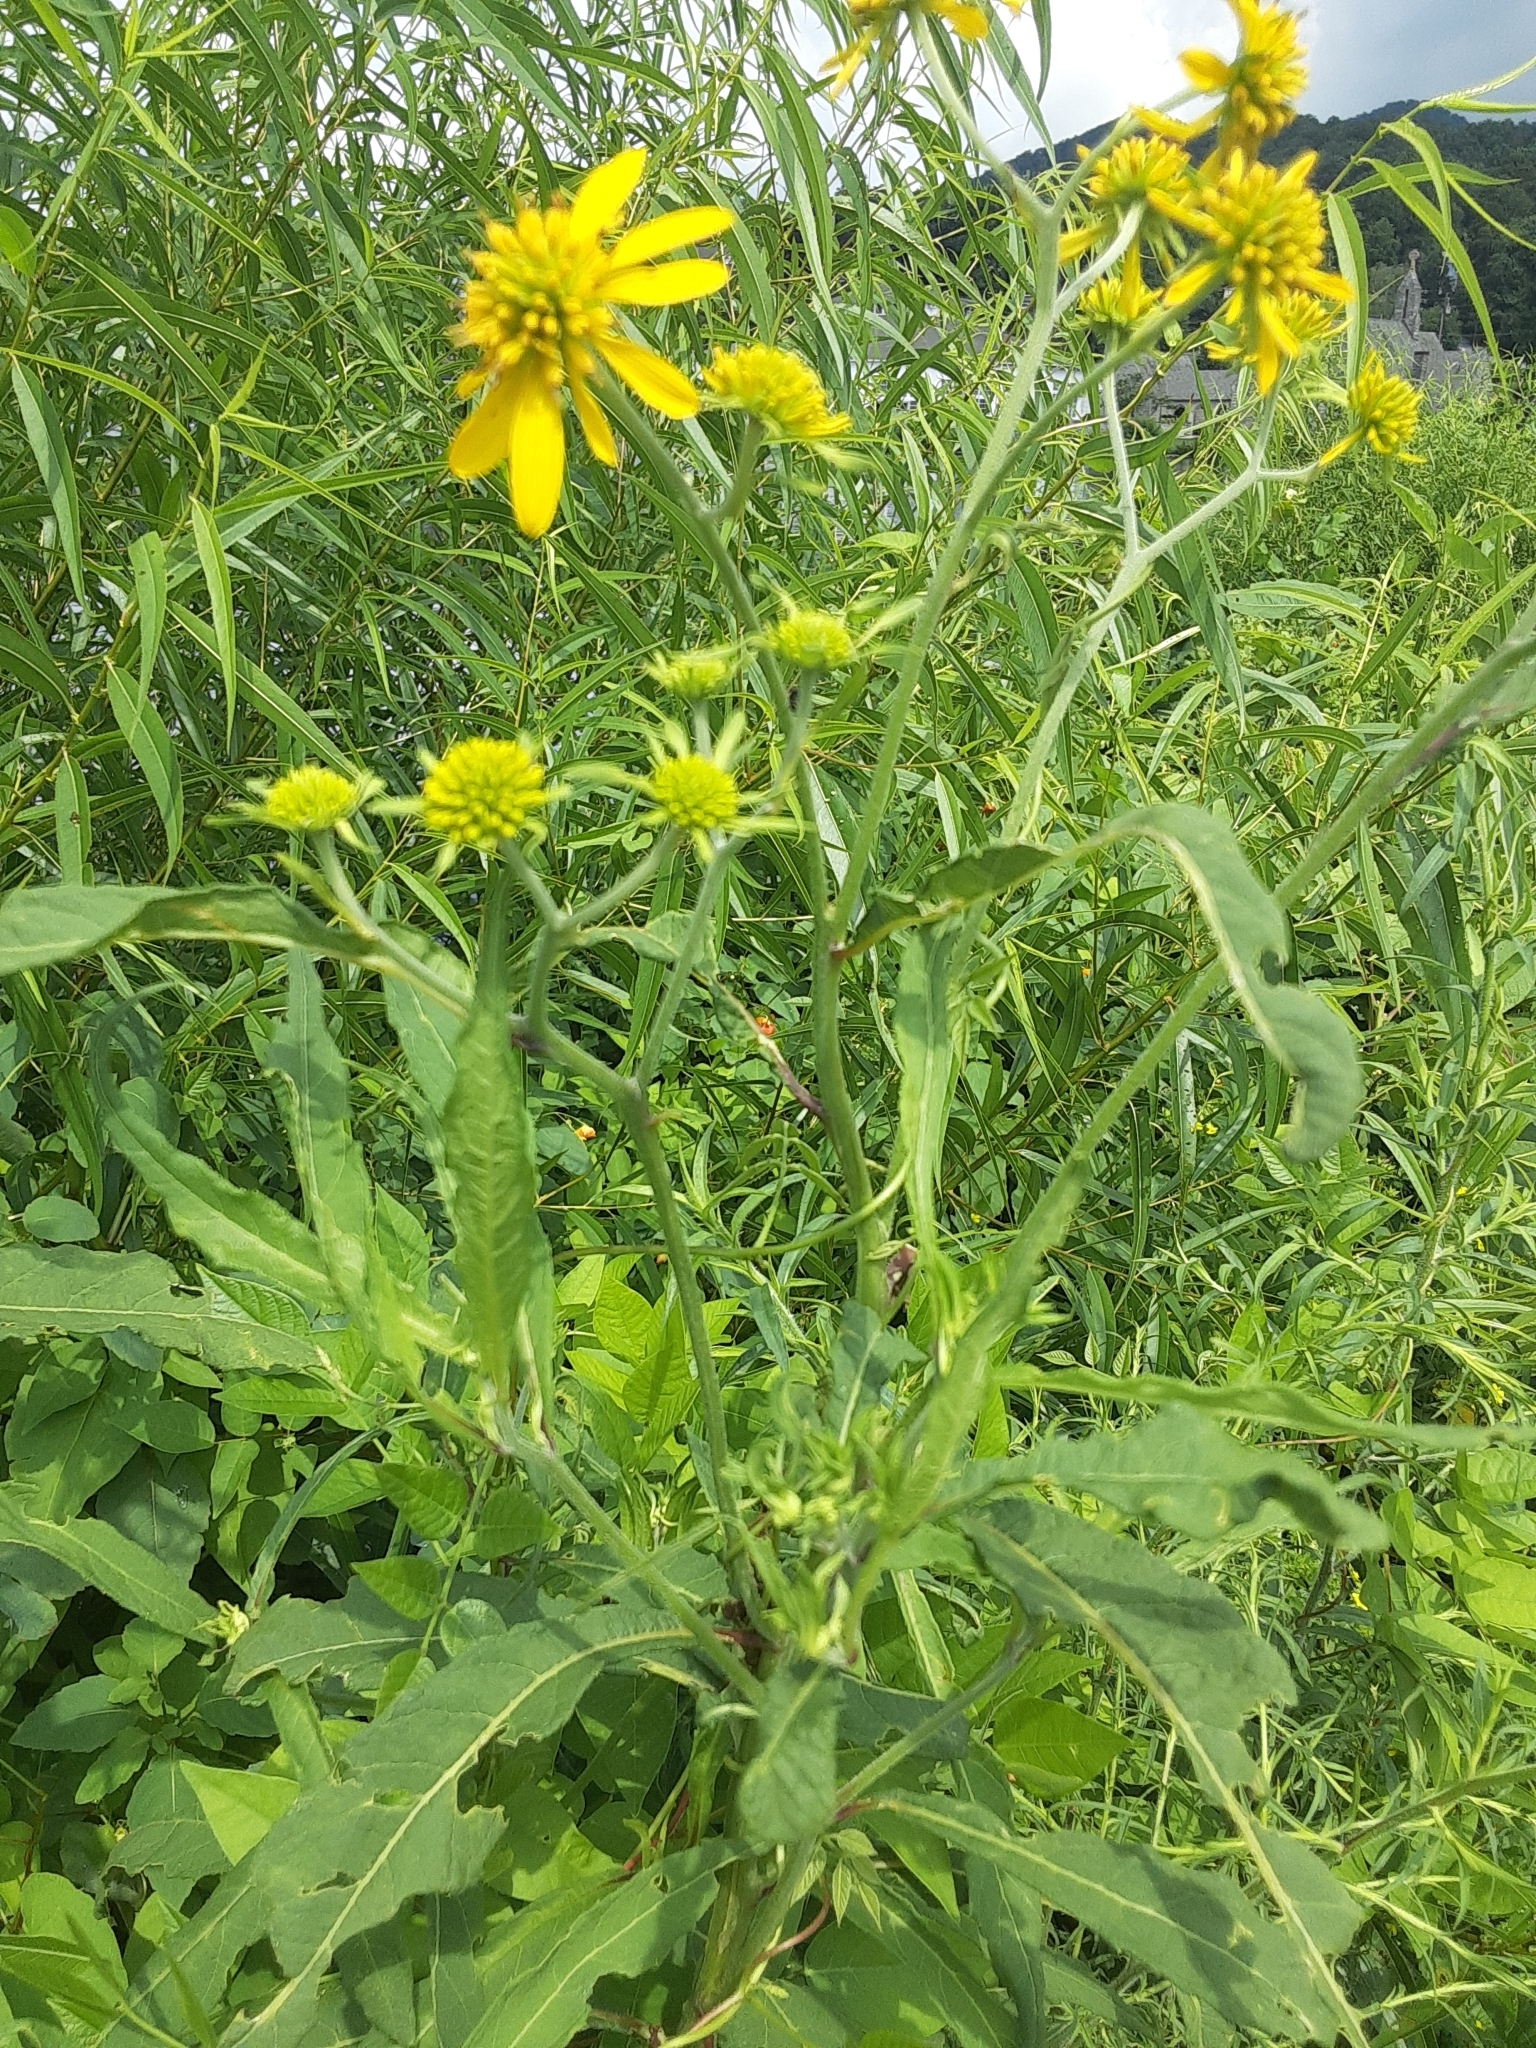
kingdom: Plantae
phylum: Tracheophyta
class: Magnoliopsida
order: Asterales
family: Asteraceae
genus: Verbesina
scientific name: Verbesina alternifolia
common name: Wingstem
